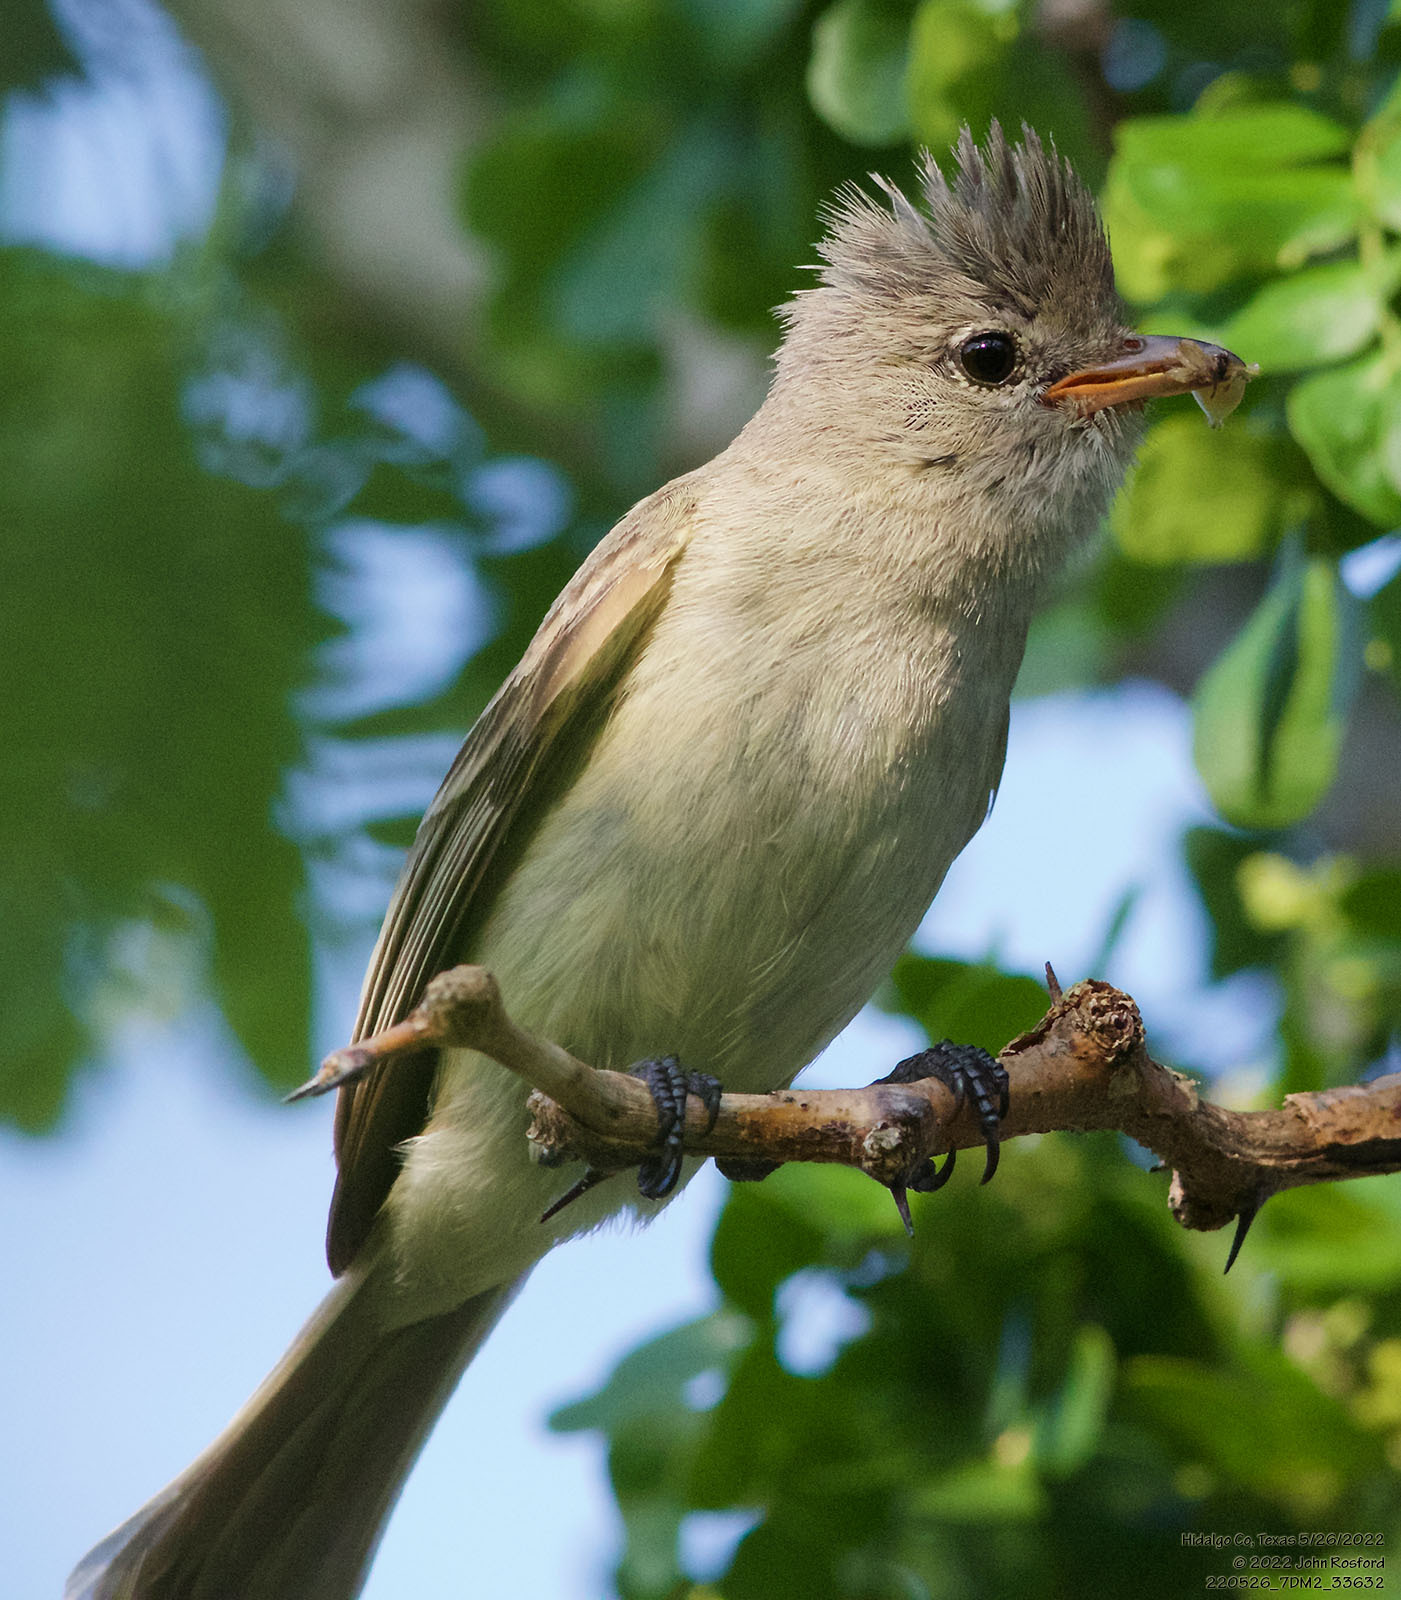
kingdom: Animalia
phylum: Chordata
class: Aves
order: Passeriformes
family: Tyrannidae
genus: Camptostoma
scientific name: Camptostoma imberbe
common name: Northern beardless-tyrannulet
